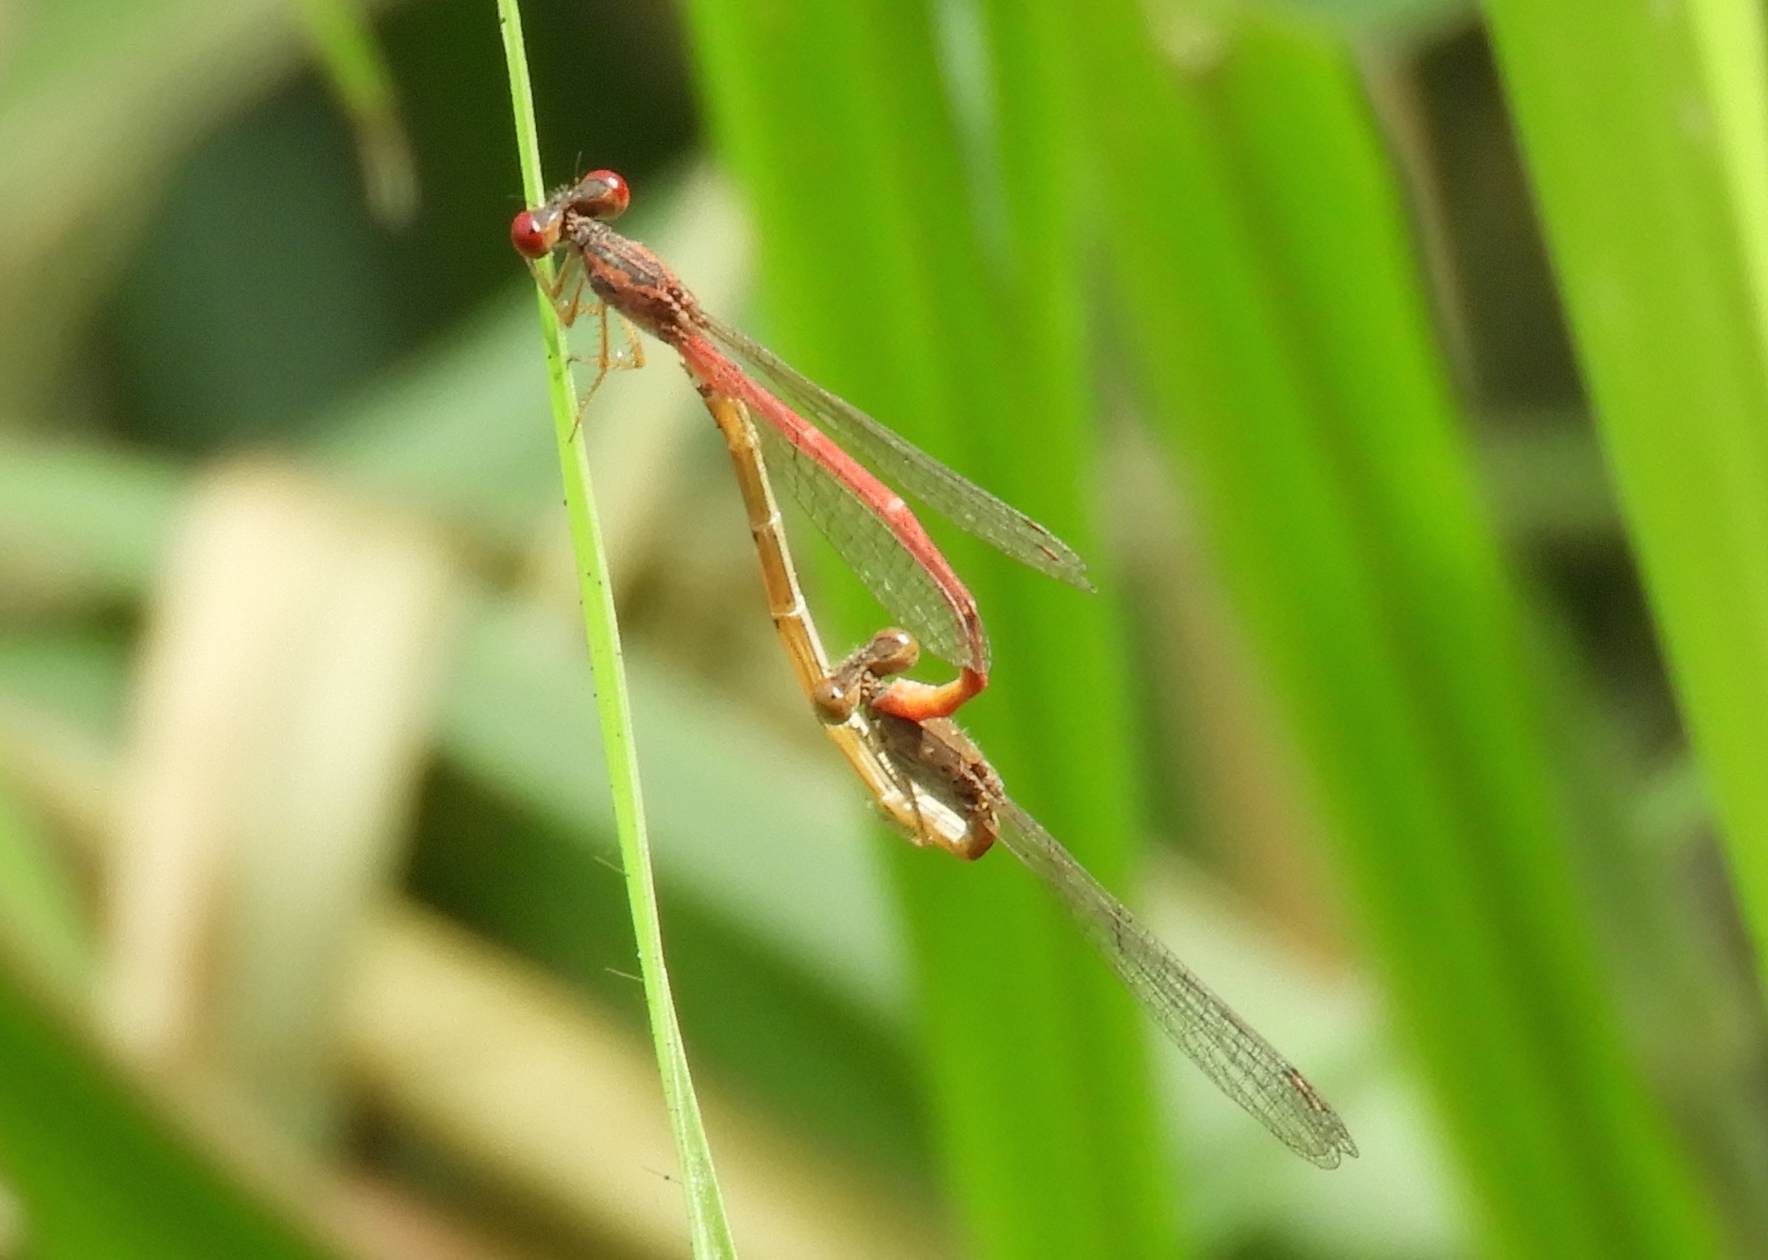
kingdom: Animalia
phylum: Arthropoda
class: Insecta
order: Odonata
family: Coenagrionidae
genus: Telebasis
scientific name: Telebasis salva
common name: Desert firetail
